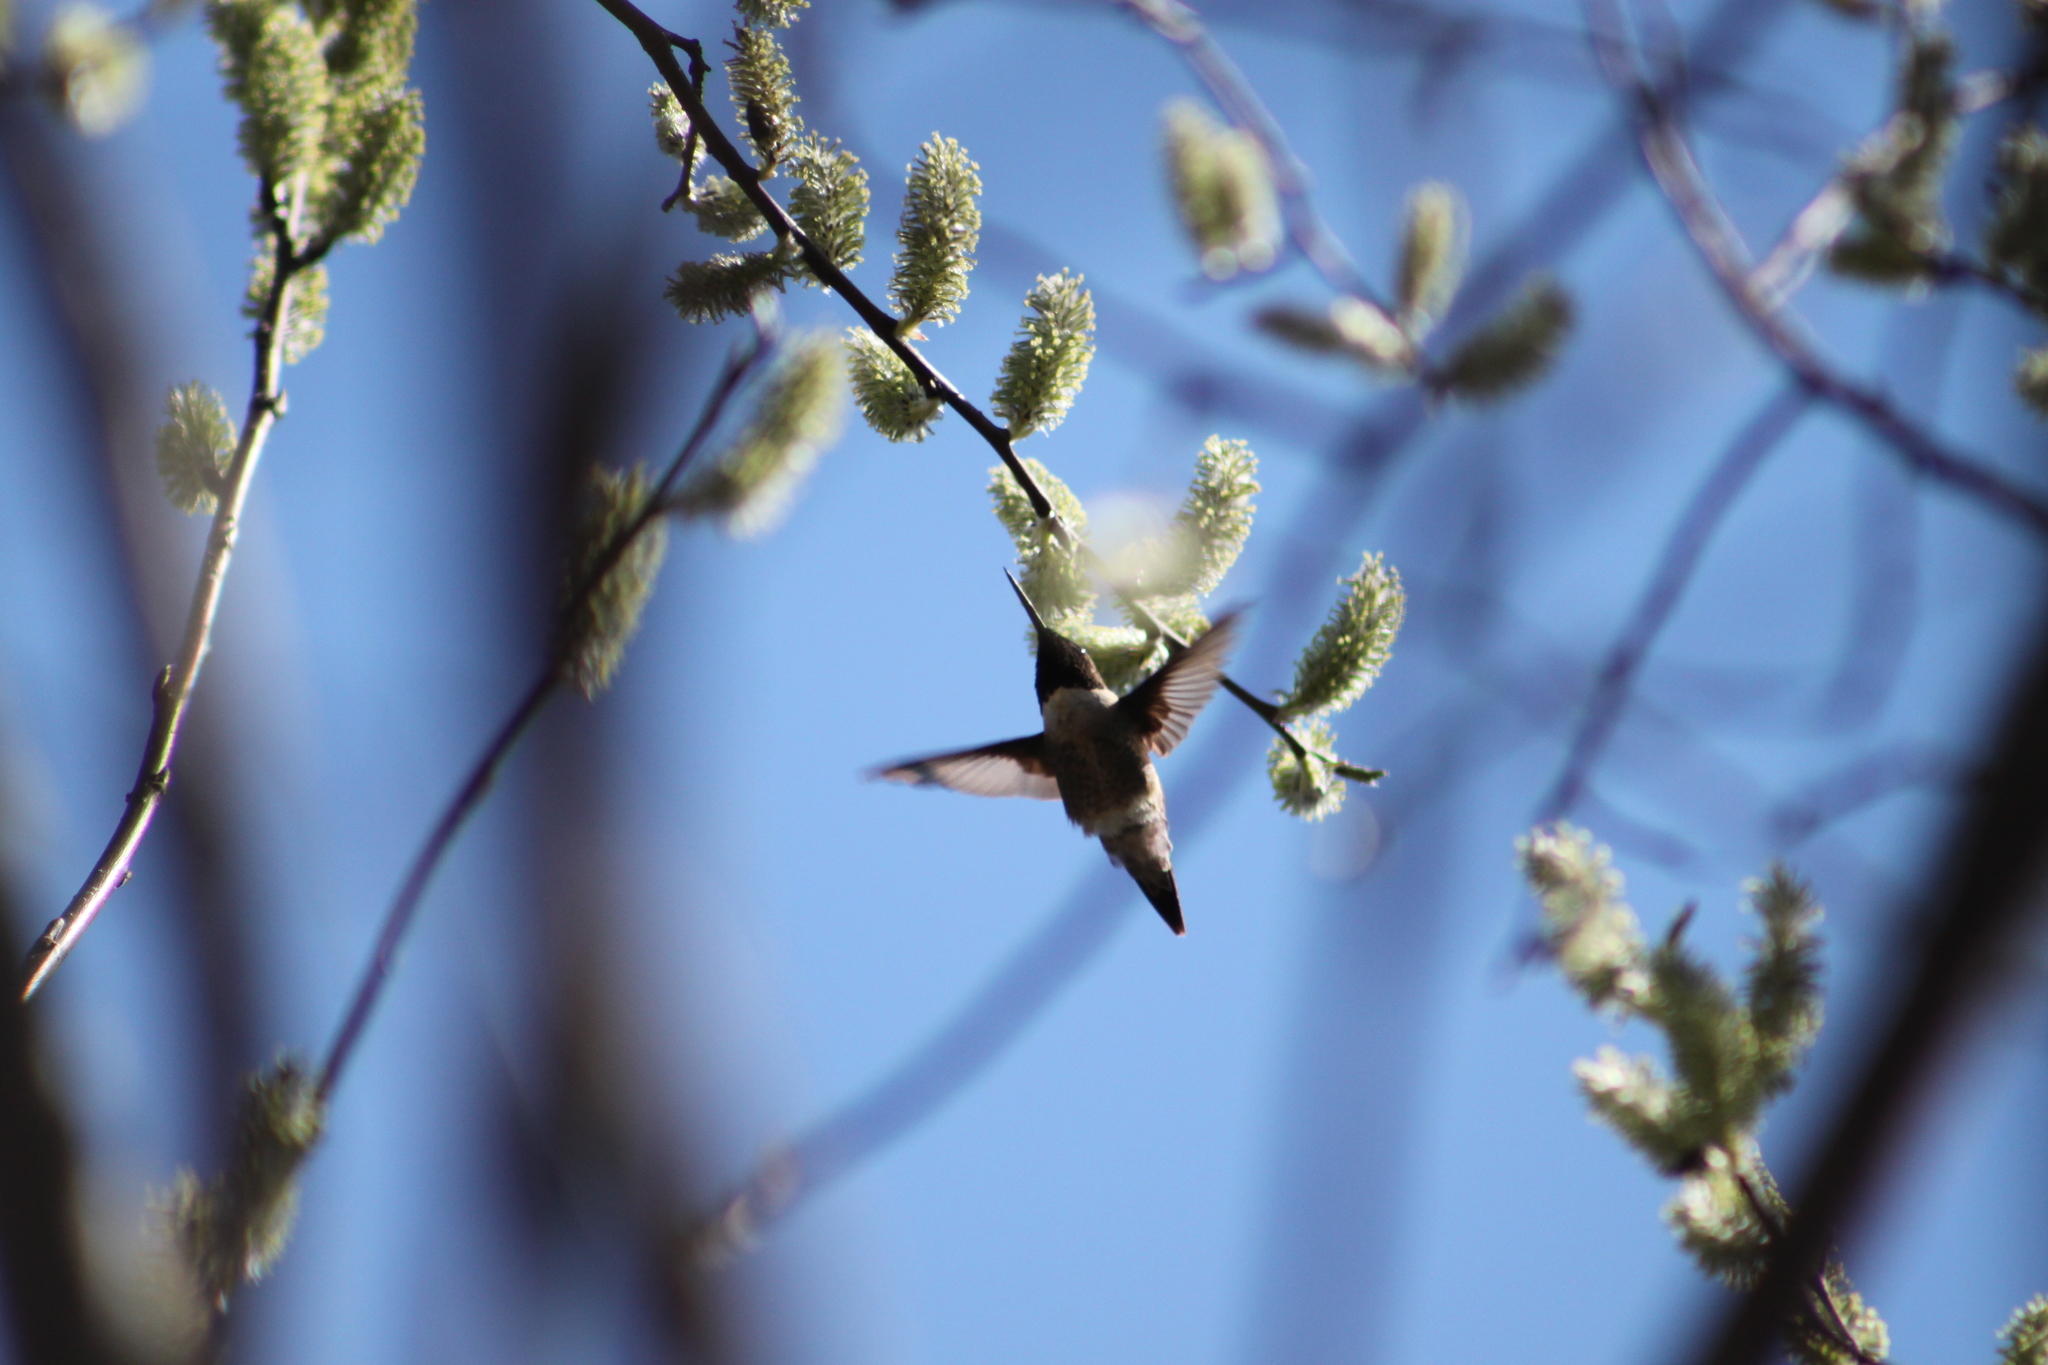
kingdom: Animalia
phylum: Chordata
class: Aves
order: Apodiformes
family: Trochilidae
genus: Archilochus
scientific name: Archilochus colubris
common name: Ruby-throated hummingbird
